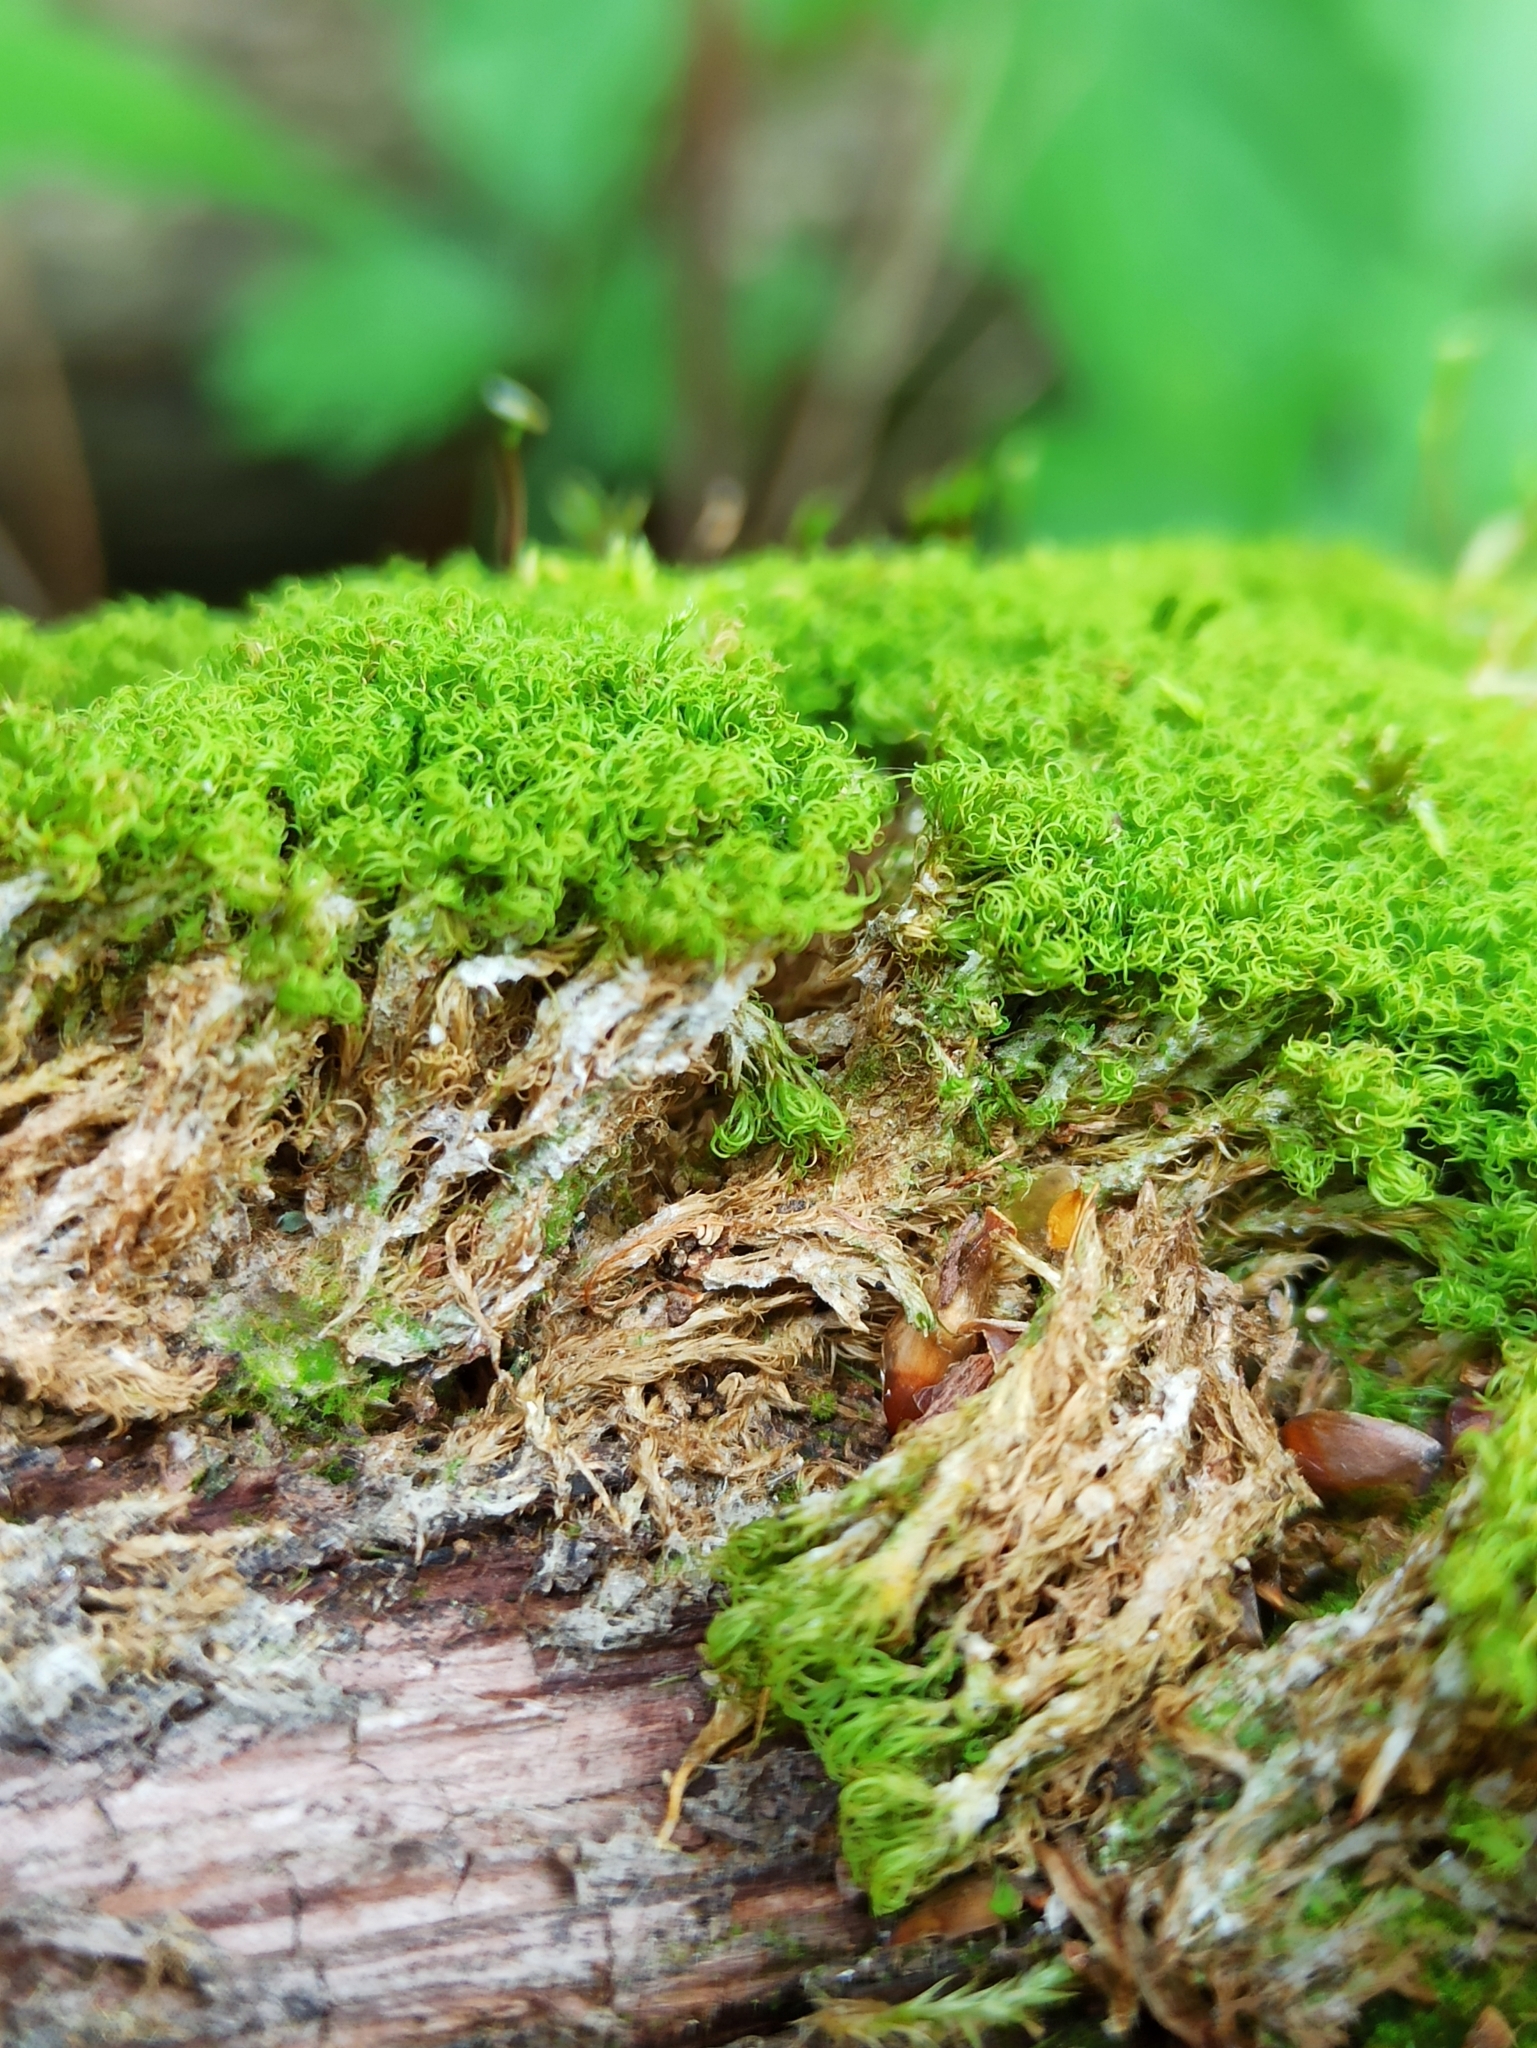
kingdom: Plantae
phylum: Bryophyta
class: Bryopsida
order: Dicranales
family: Dicranaceae
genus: Orthodicranum
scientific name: Orthodicranum montanum
